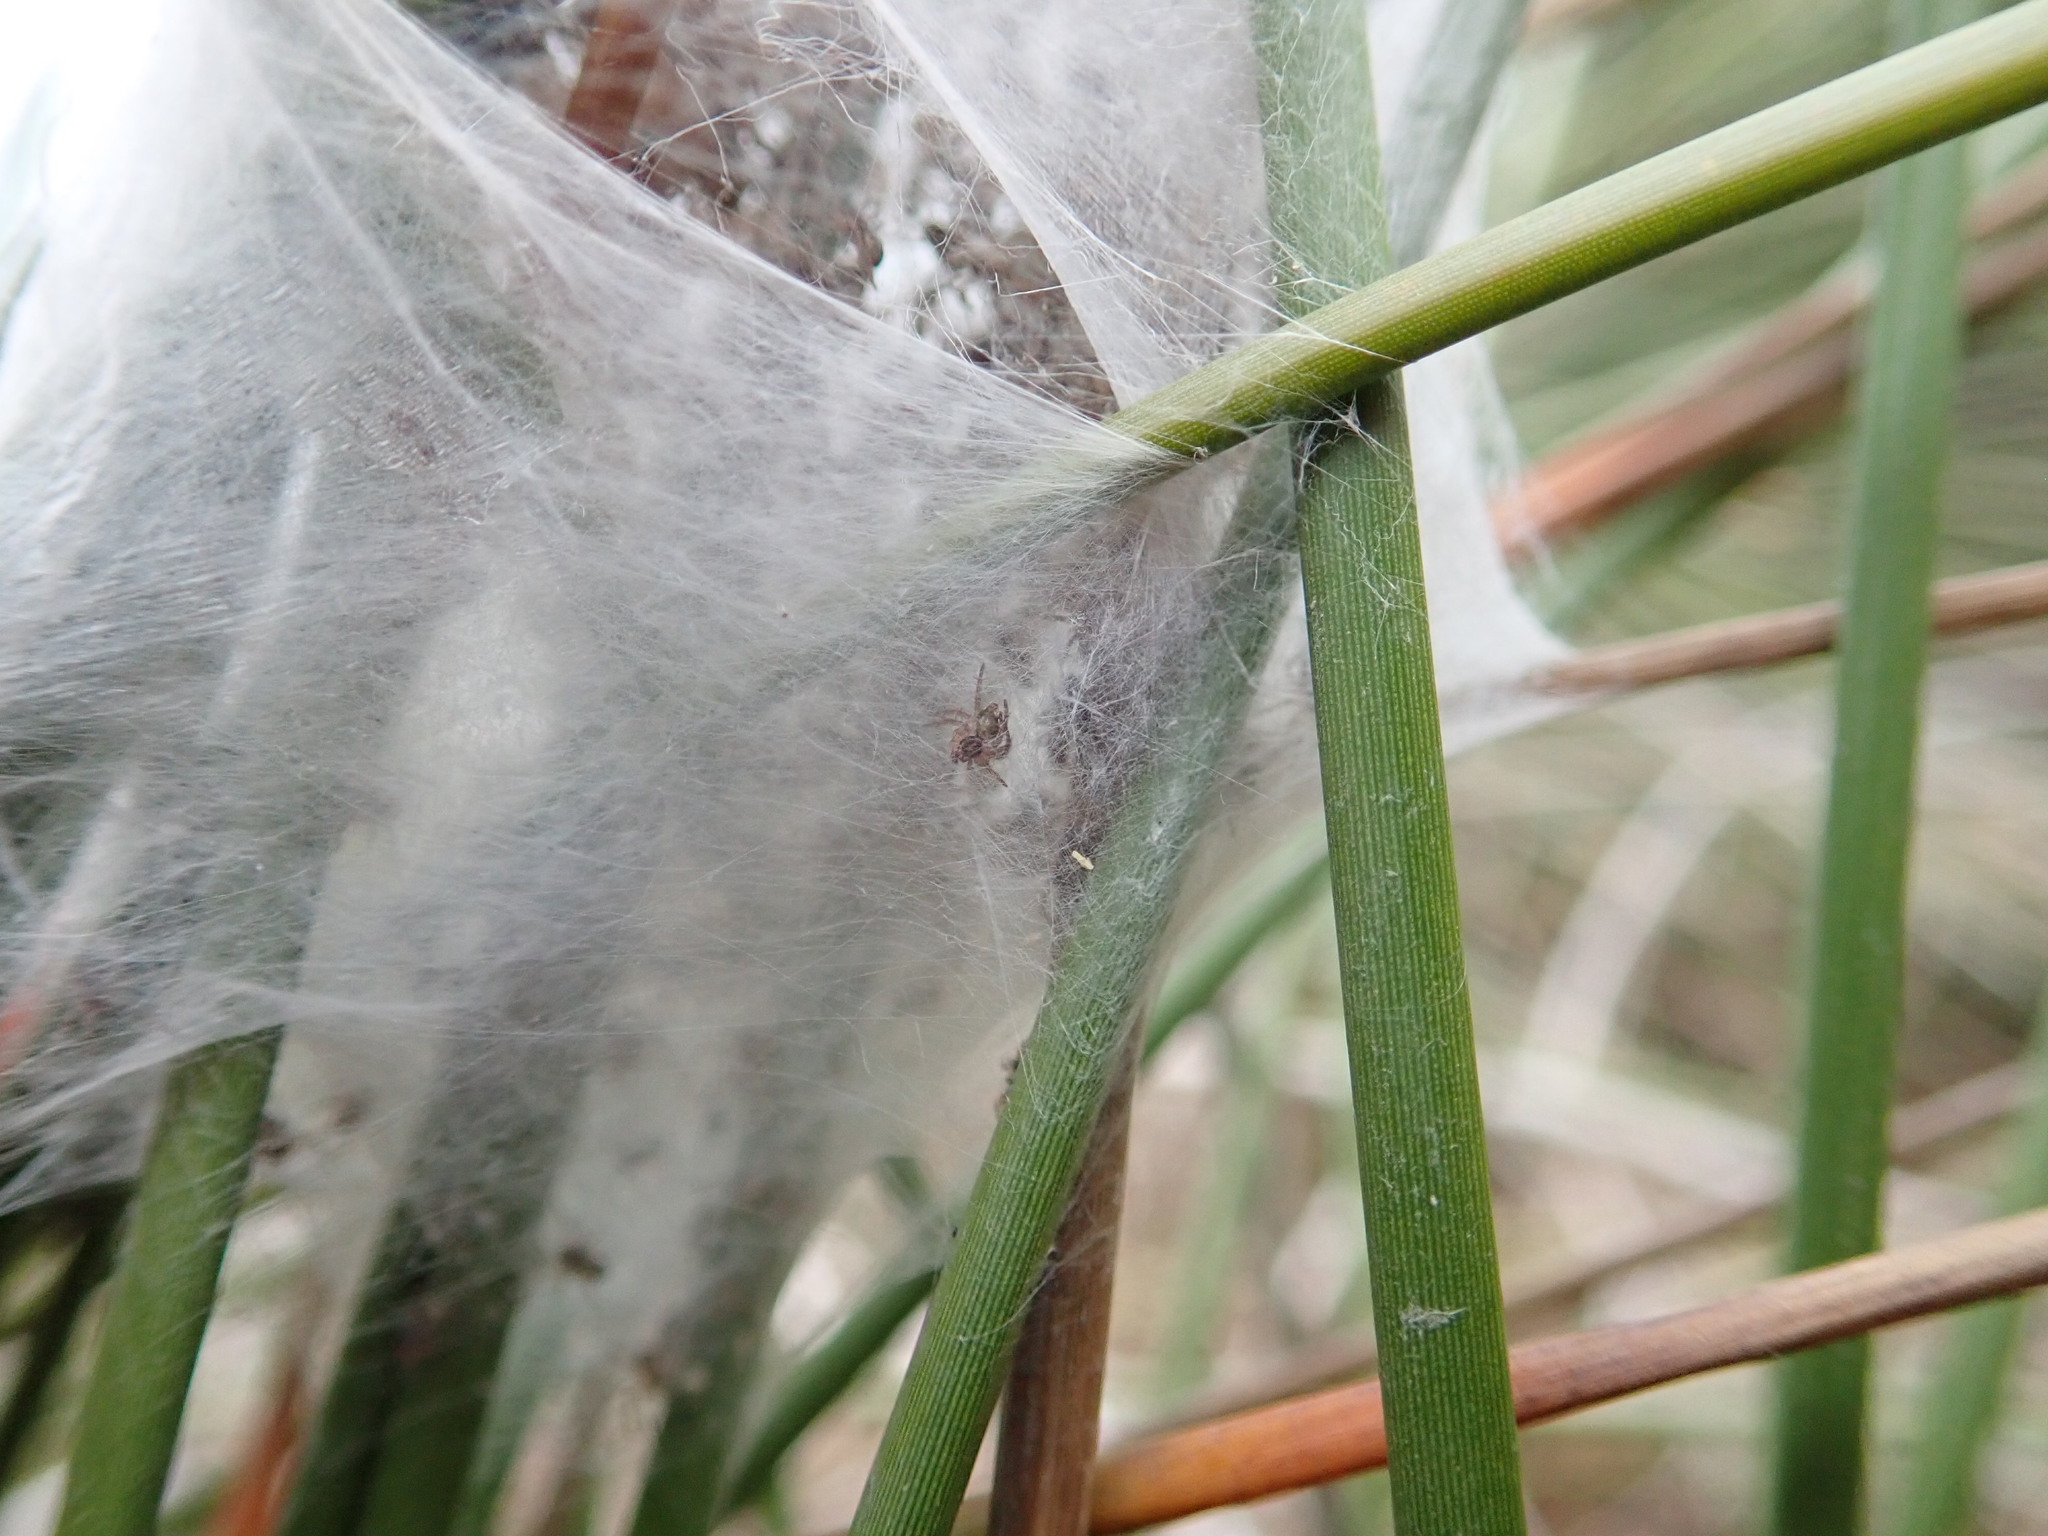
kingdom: Animalia
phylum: Arthropoda
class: Arachnida
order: Araneae
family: Pisauridae
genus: Dolomedes
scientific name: Dolomedes minor
